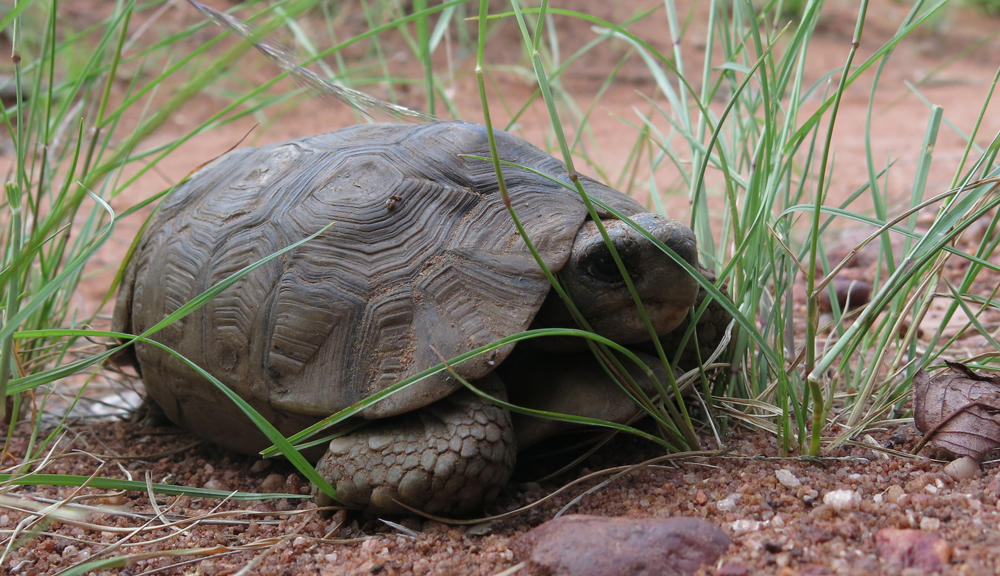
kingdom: Animalia
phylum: Chordata
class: Testudines
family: Testudinidae
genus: Kinixys
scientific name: Kinixys spekii
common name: Speke's hingeback tortoise
